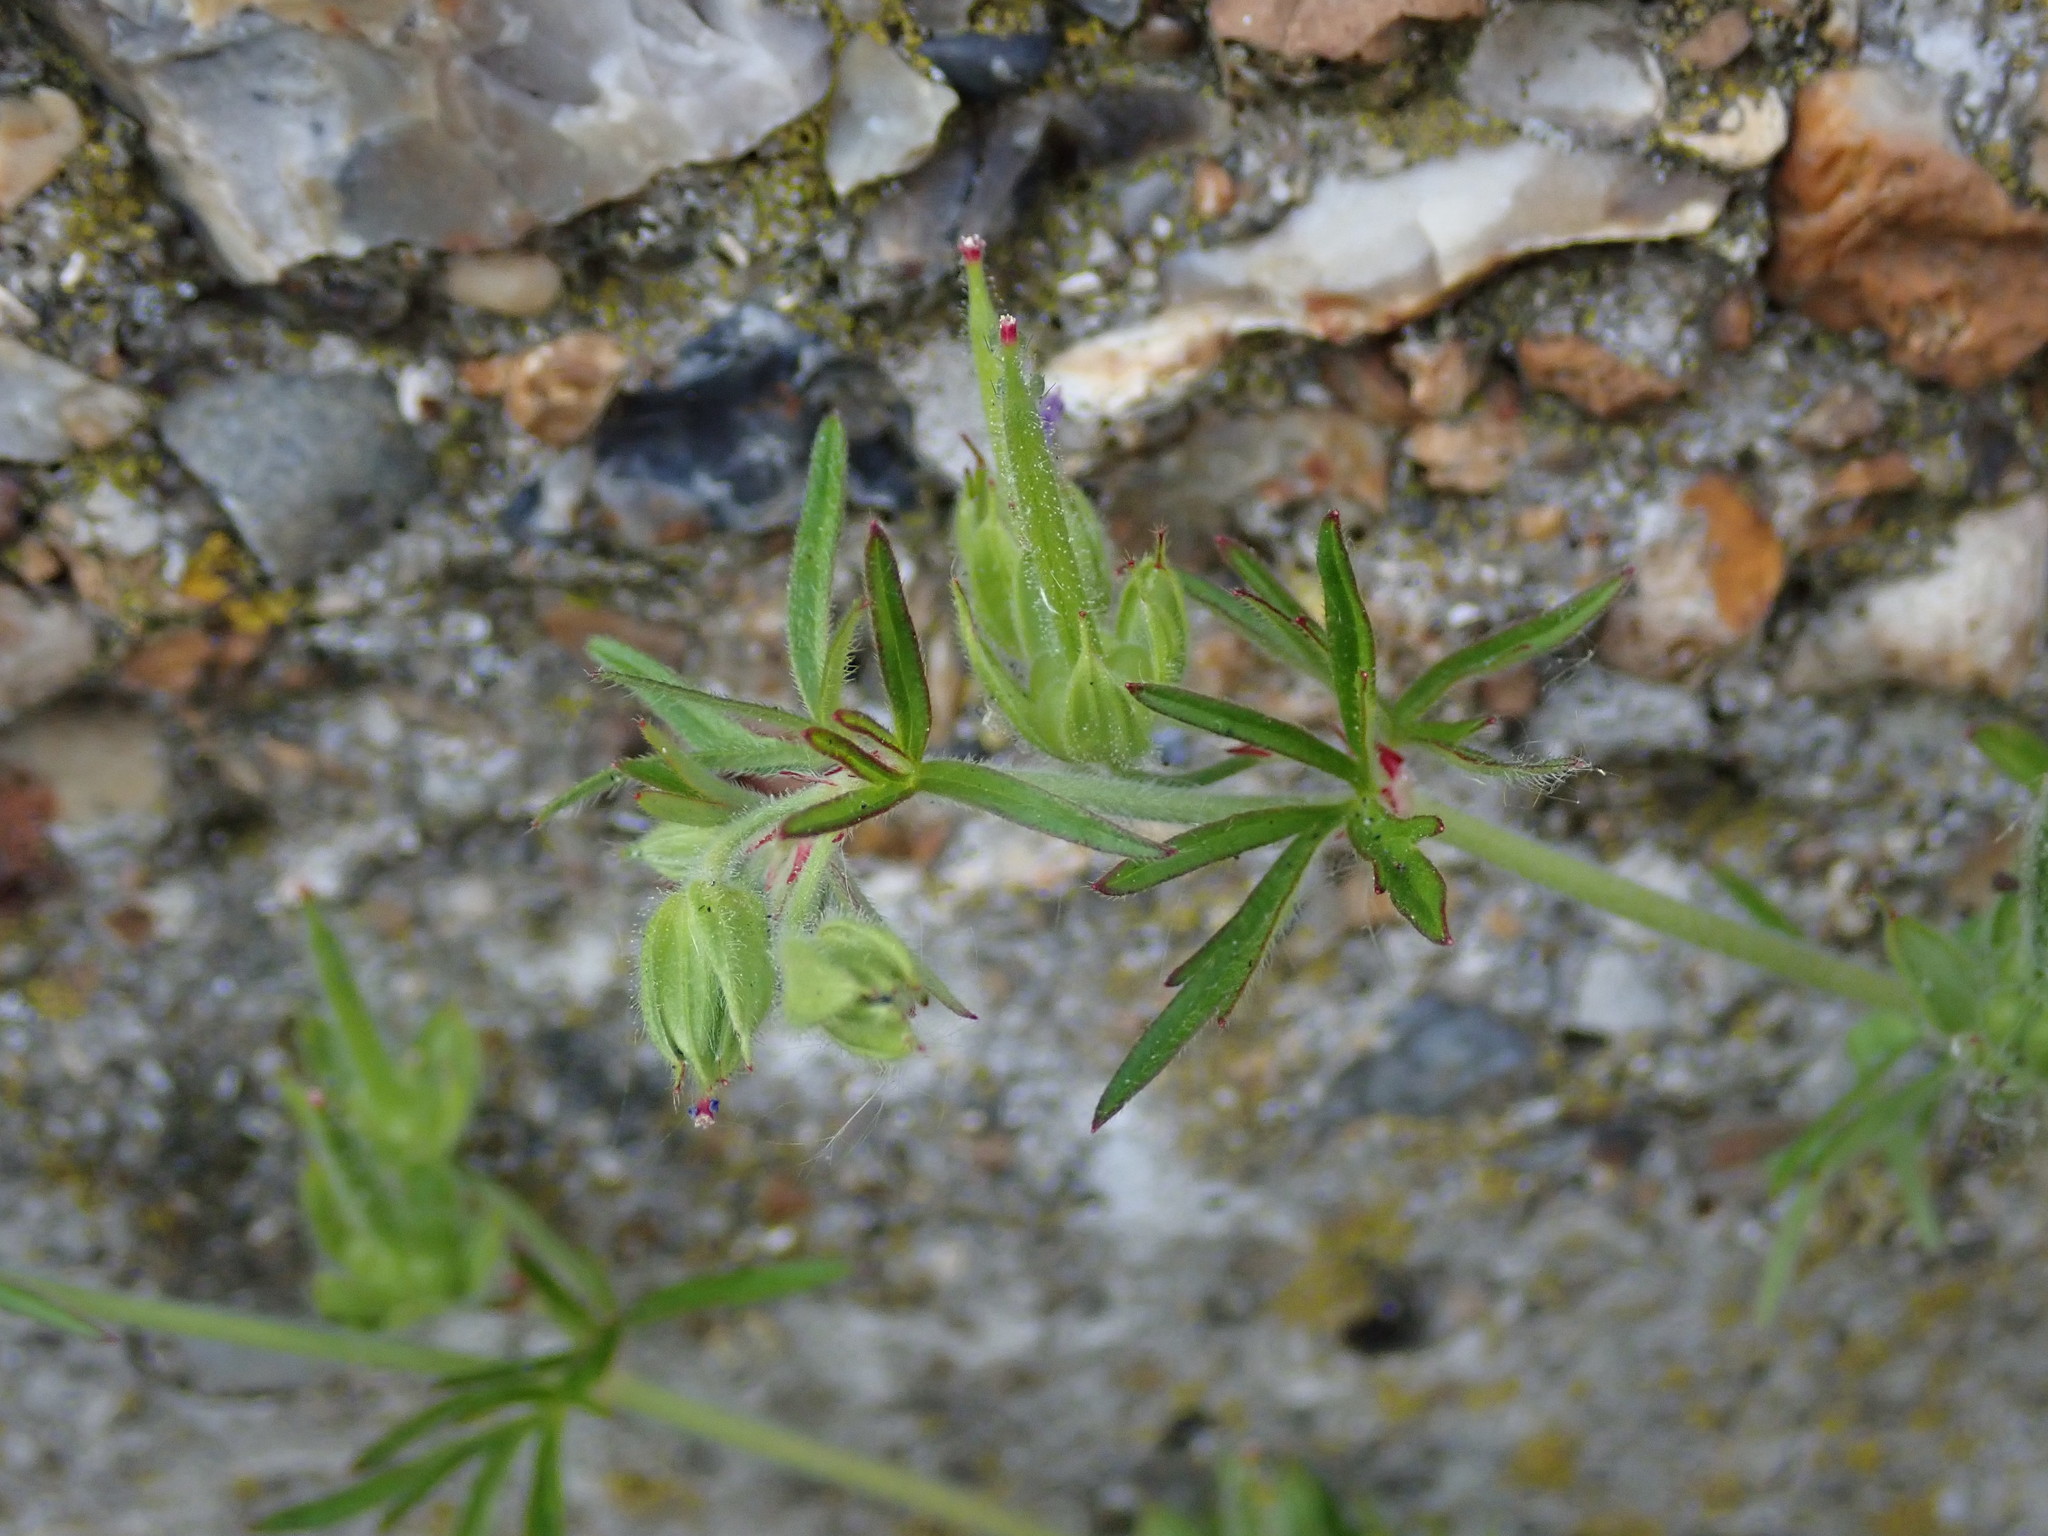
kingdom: Plantae
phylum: Tracheophyta
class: Magnoliopsida
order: Geraniales
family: Geraniaceae
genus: Geranium
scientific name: Geranium dissectum
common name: Cut-leaved crane's-bill
